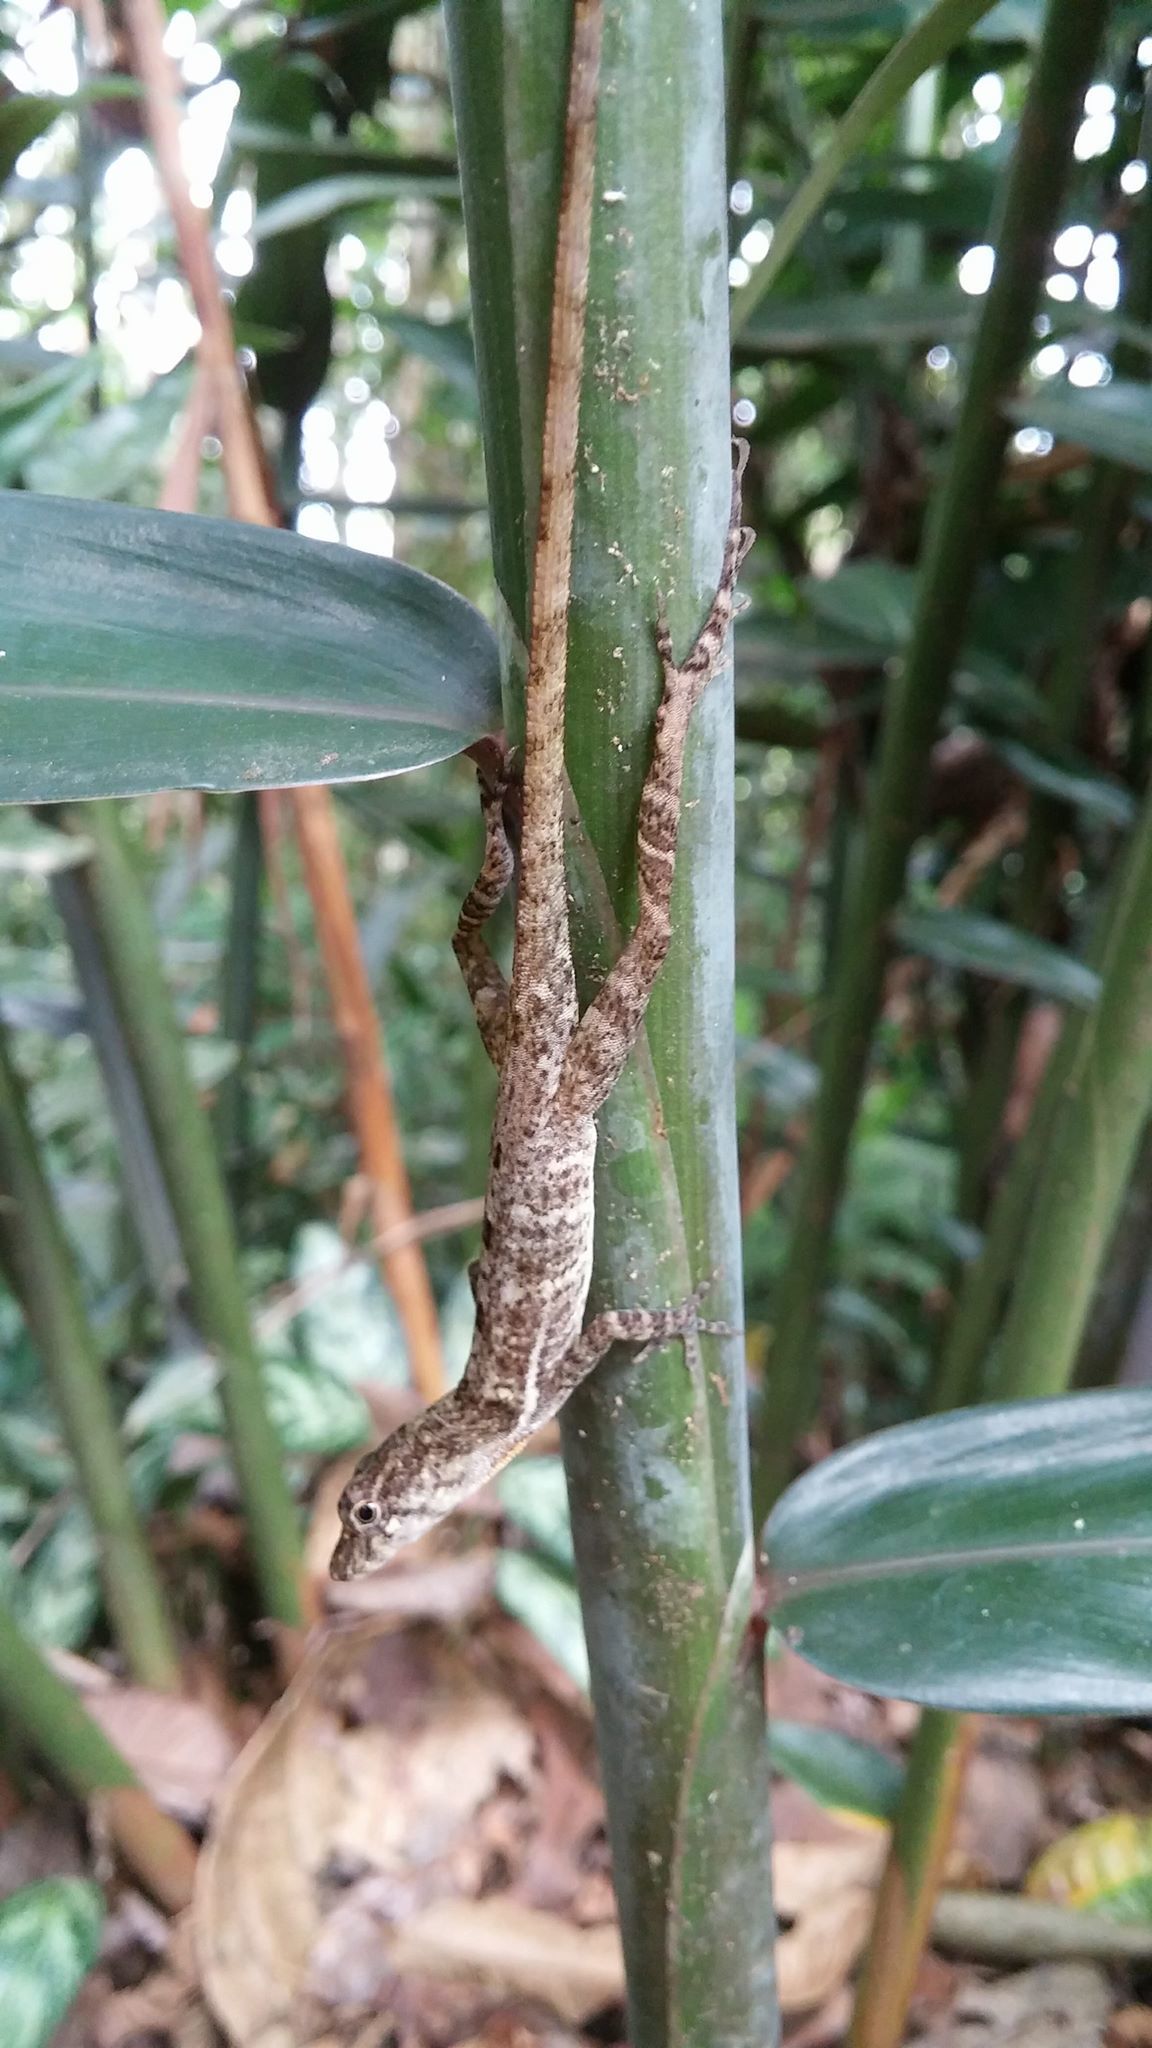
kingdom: Animalia
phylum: Chordata
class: Squamata
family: Dactyloidae
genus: Anolis
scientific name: Anolis polylepis
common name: Many-scaled anole
